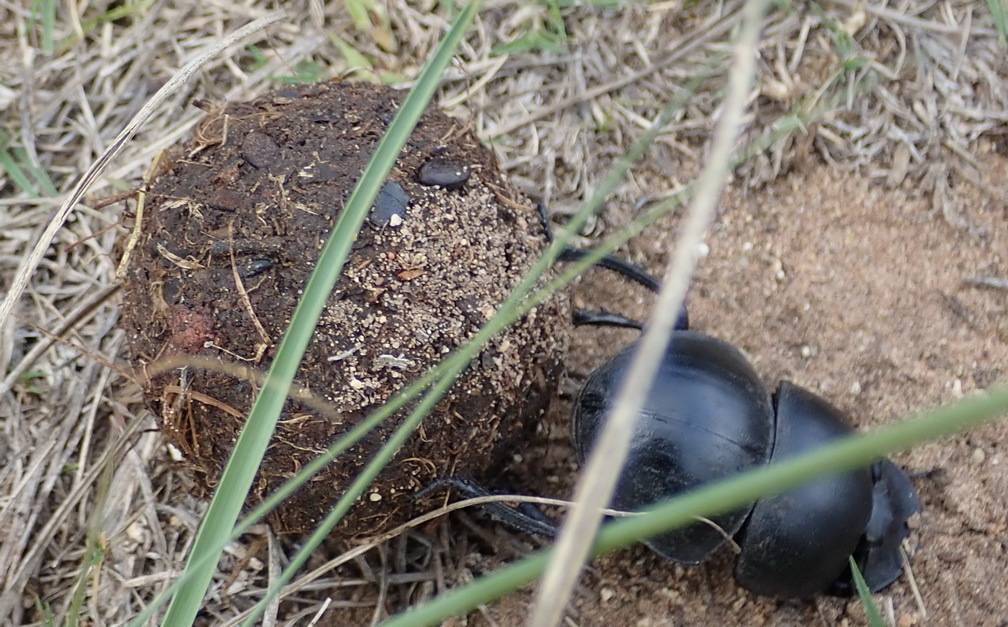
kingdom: Animalia
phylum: Arthropoda
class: Insecta
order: Coleoptera
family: Scarabaeidae
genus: Circellium
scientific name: Circellium bacchus
